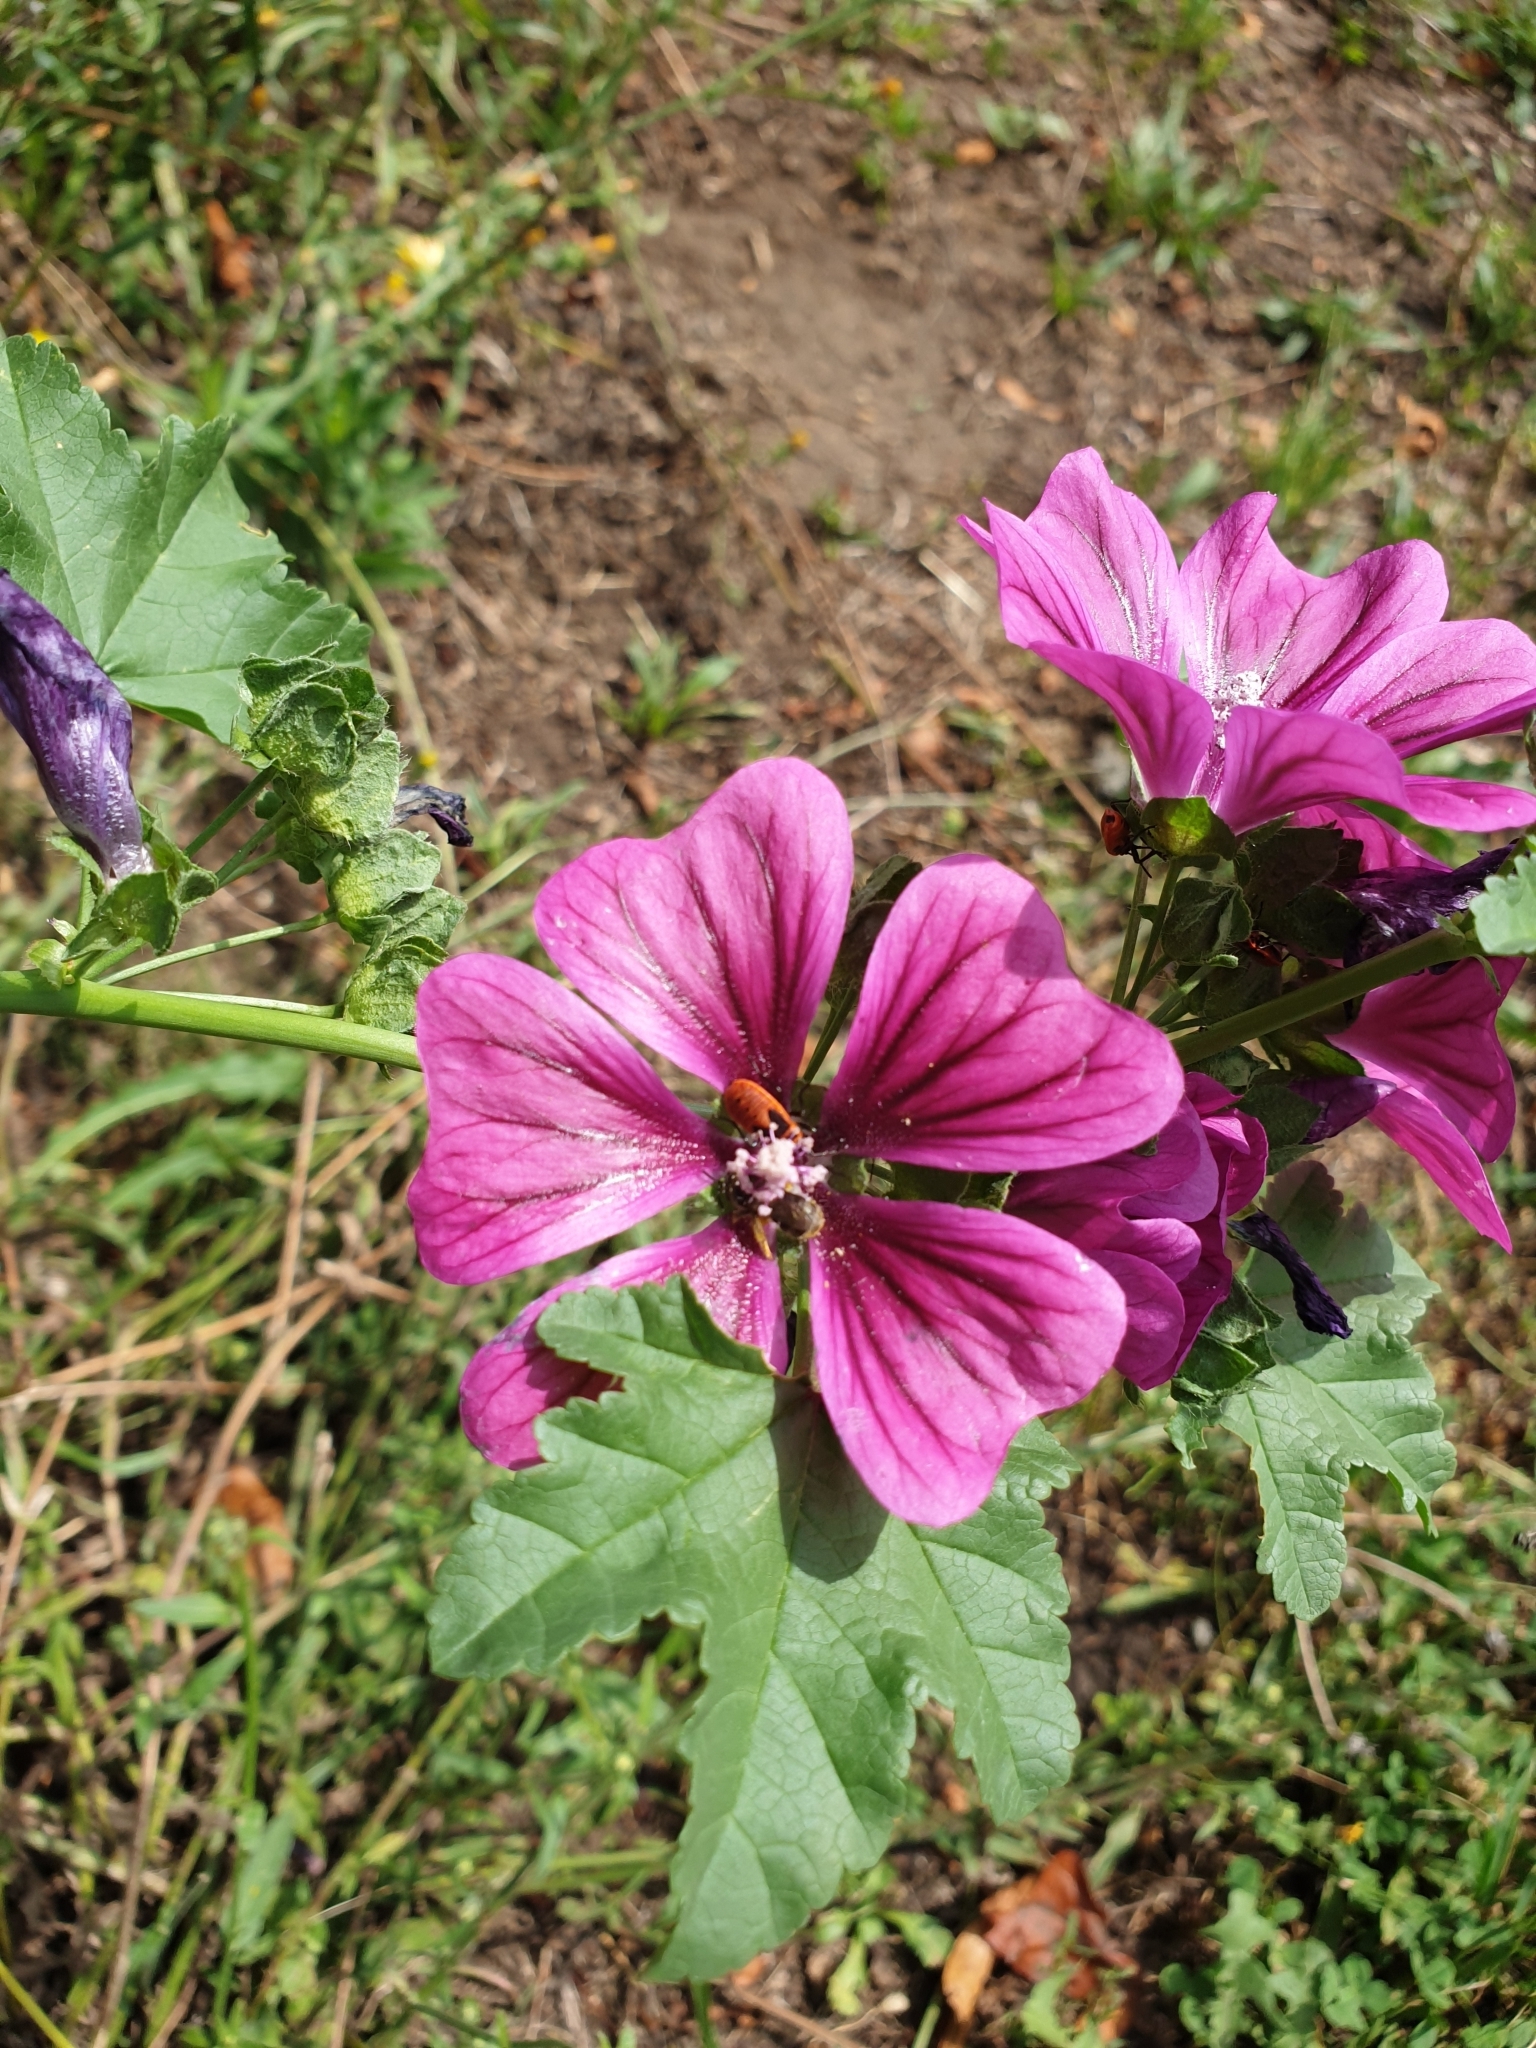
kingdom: Plantae
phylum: Tracheophyta
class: Magnoliopsida
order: Malvales
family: Malvaceae
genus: Malva
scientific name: Malva sylvestris
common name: Common mallow
